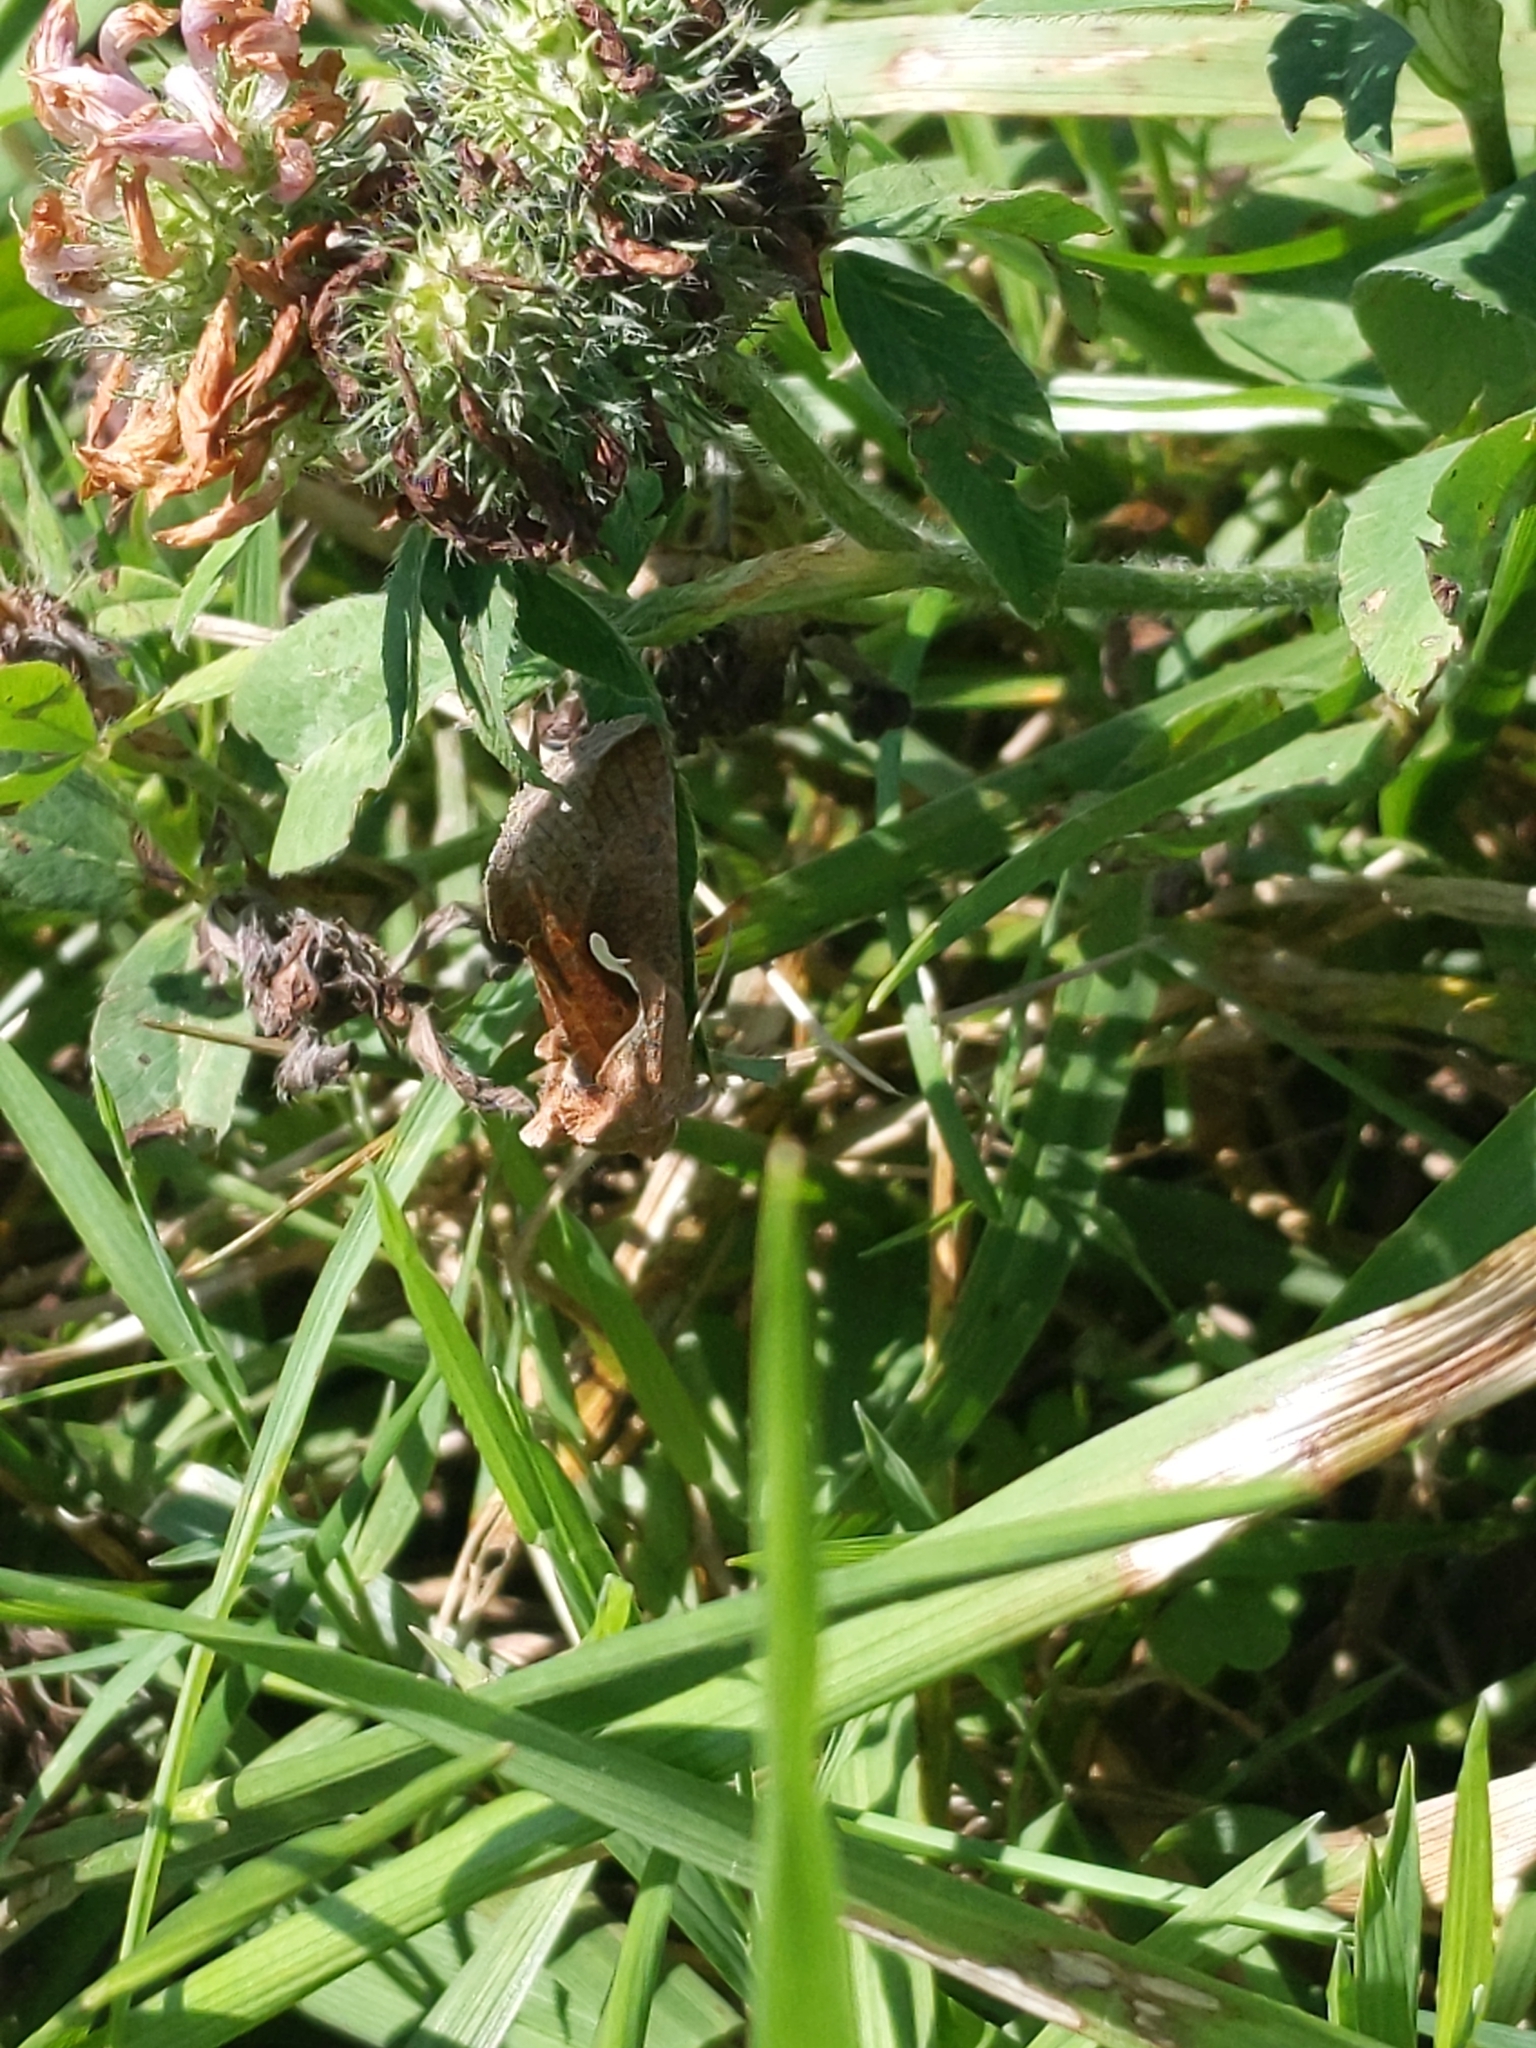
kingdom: Animalia
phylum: Arthropoda
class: Insecta
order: Lepidoptera
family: Noctuidae
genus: Anagrapha
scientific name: Anagrapha falcifera
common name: Celery looper
